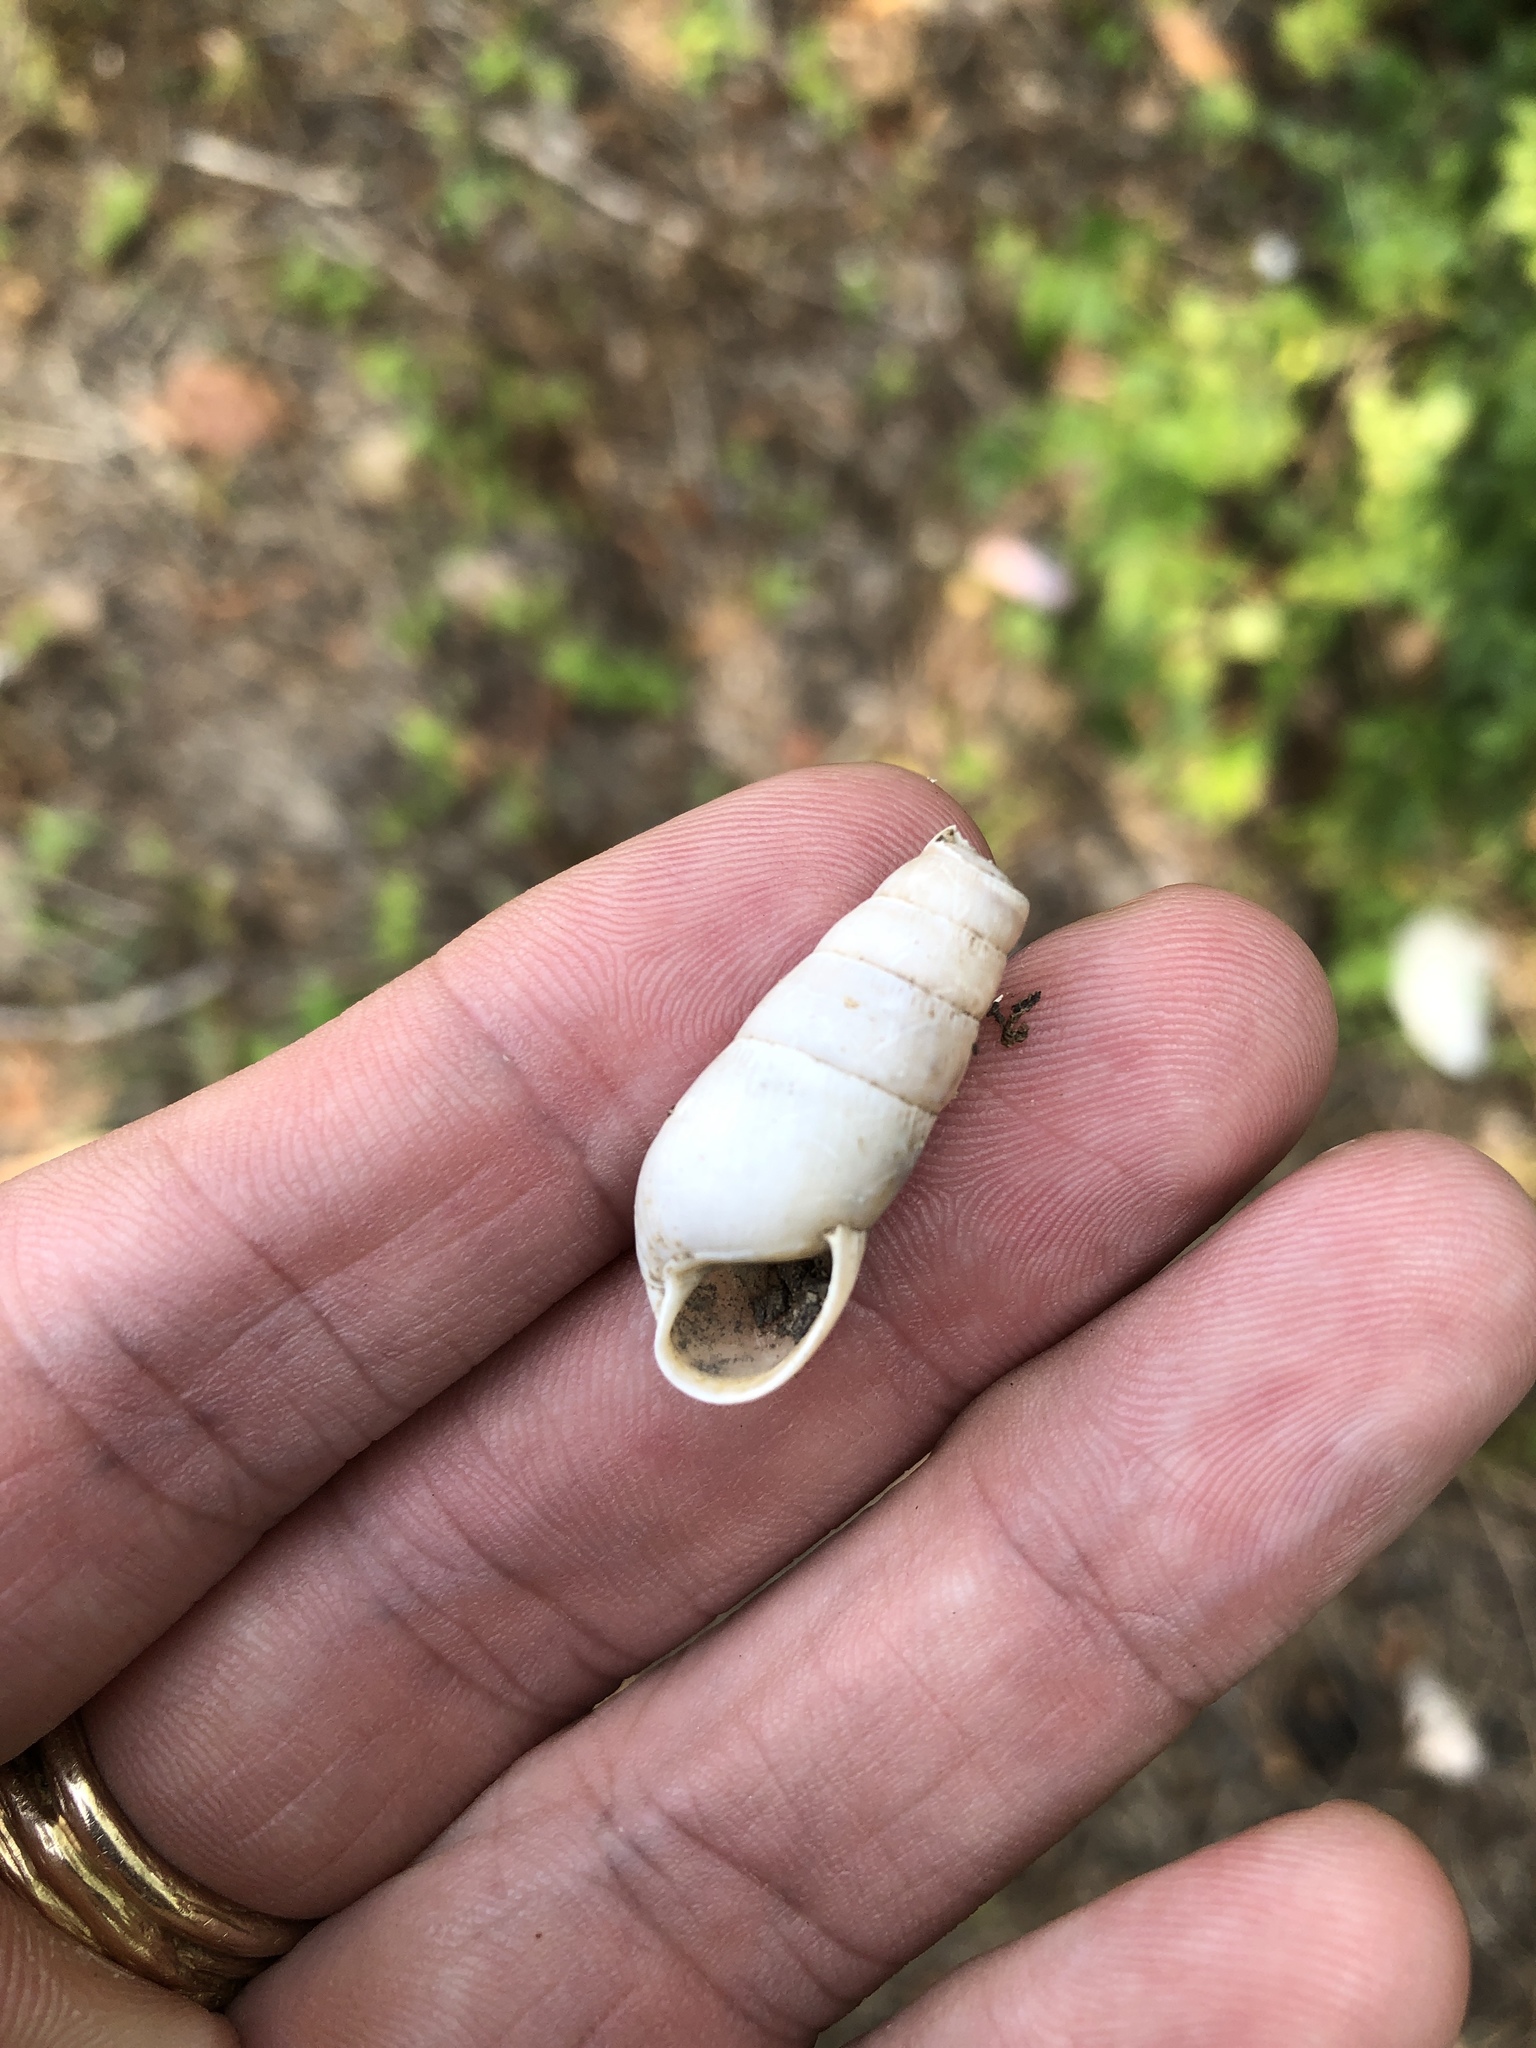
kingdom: Animalia
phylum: Mollusca
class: Gastropoda
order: Stylommatophora
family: Achatinidae
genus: Rumina
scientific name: Rumina decollata
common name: Decollate snail
